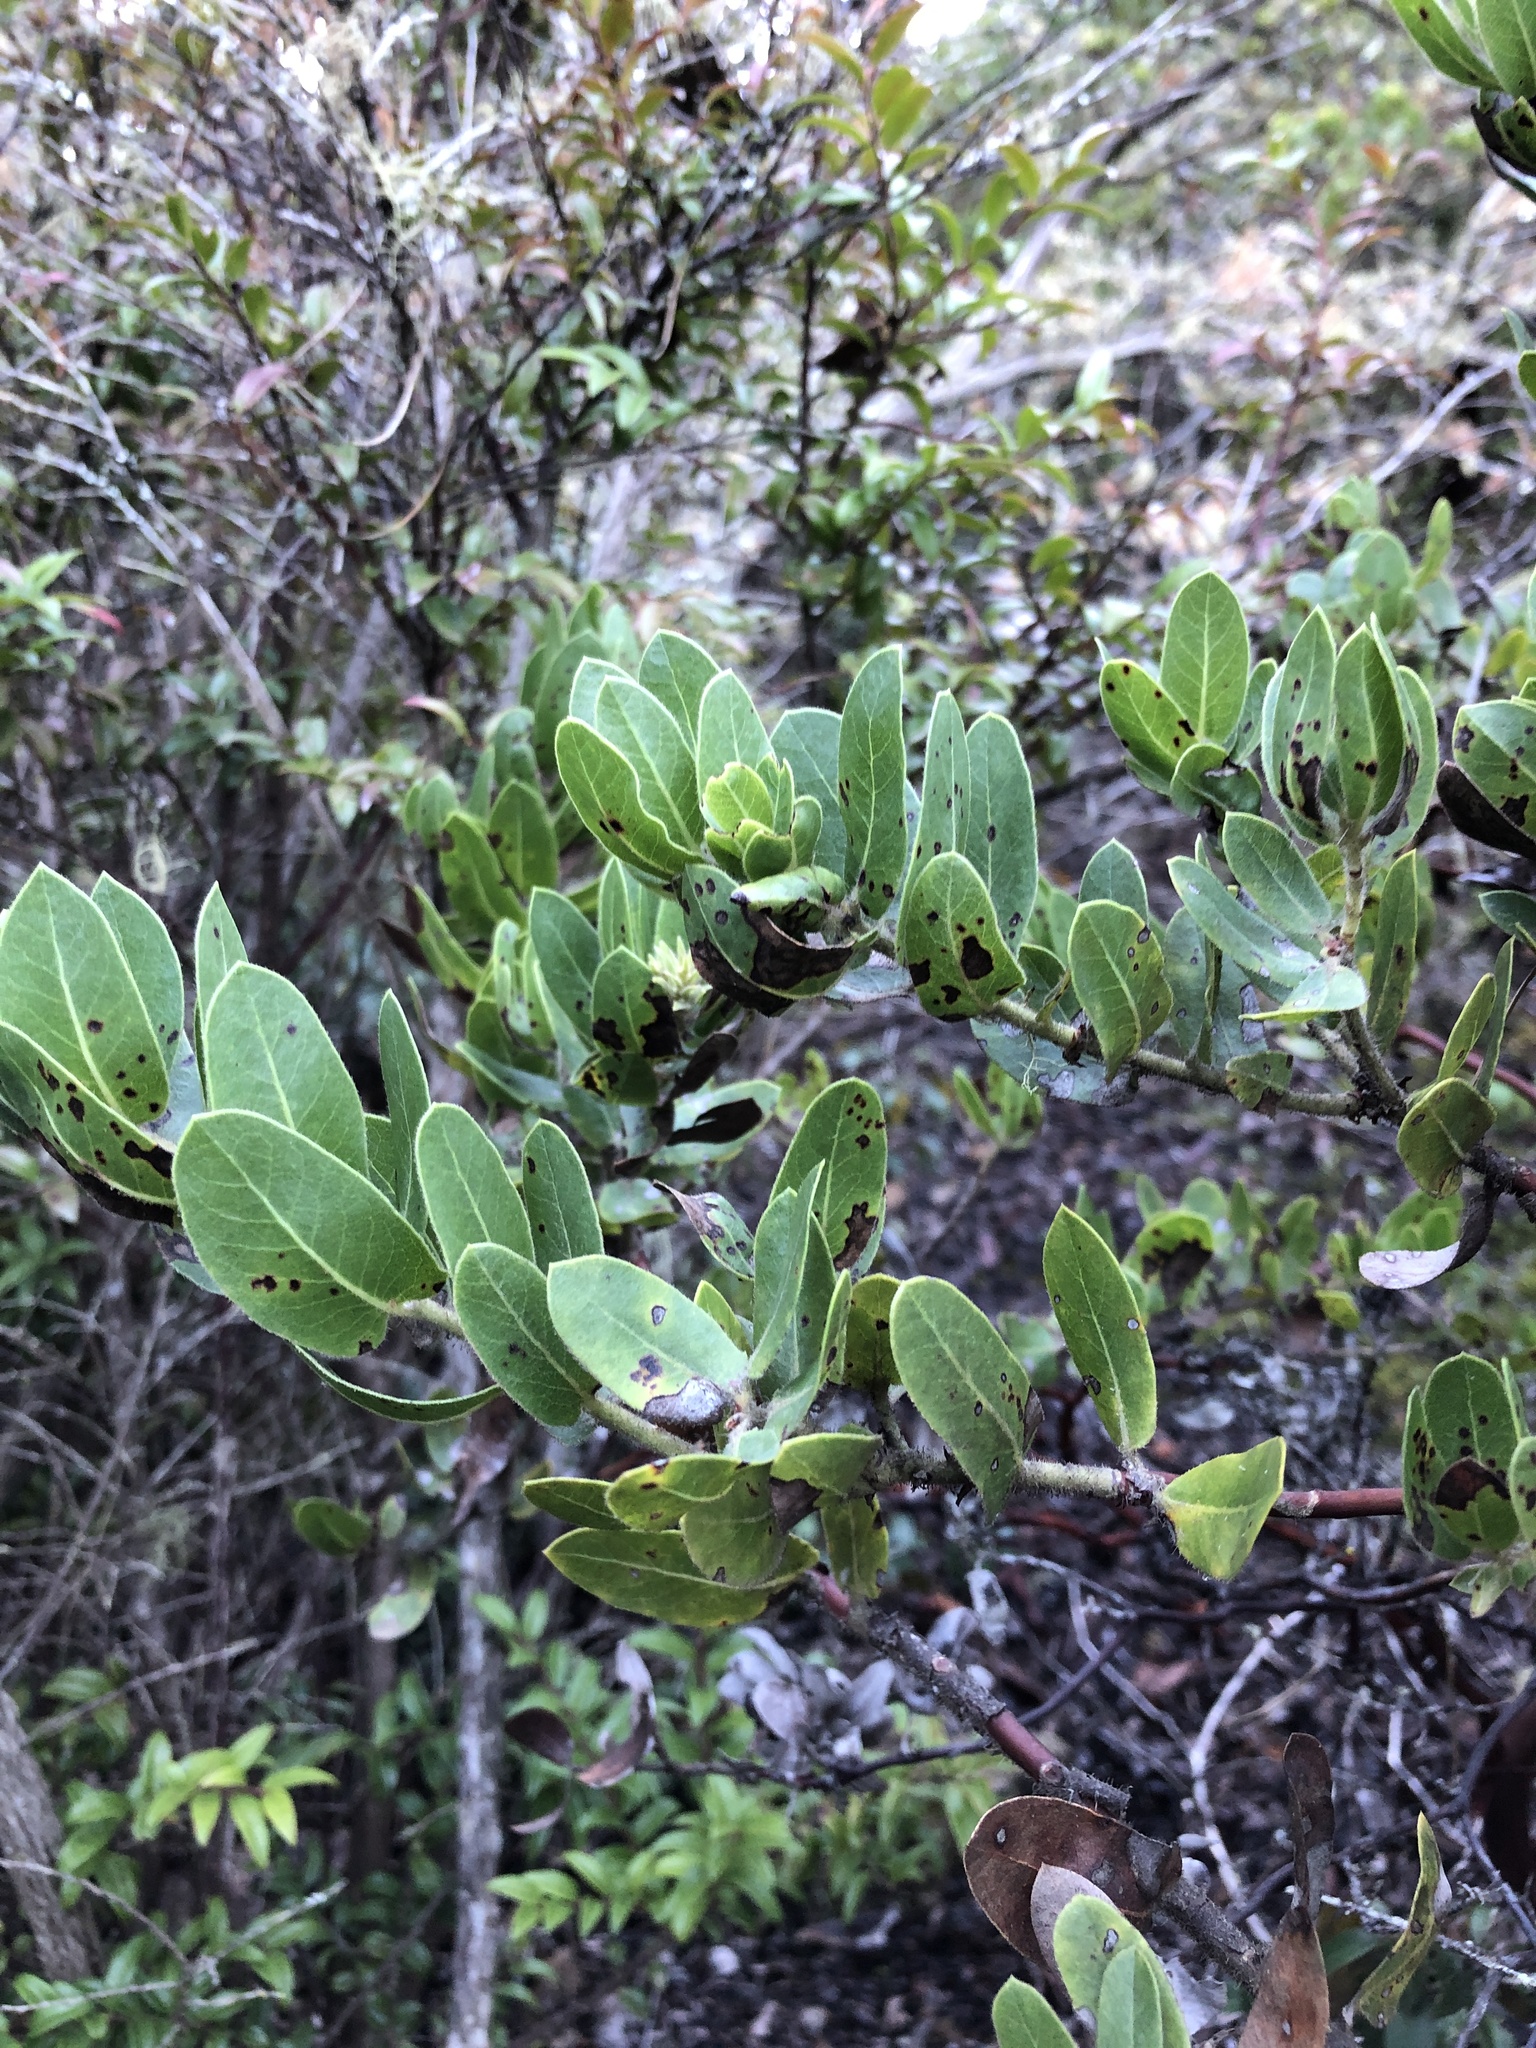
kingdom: Plantae
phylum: Tracheophyta
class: Magnoliopsida
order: Ericales
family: Ericaceae
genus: Arctostaphylos
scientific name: Arctostaphylos montaraensis
